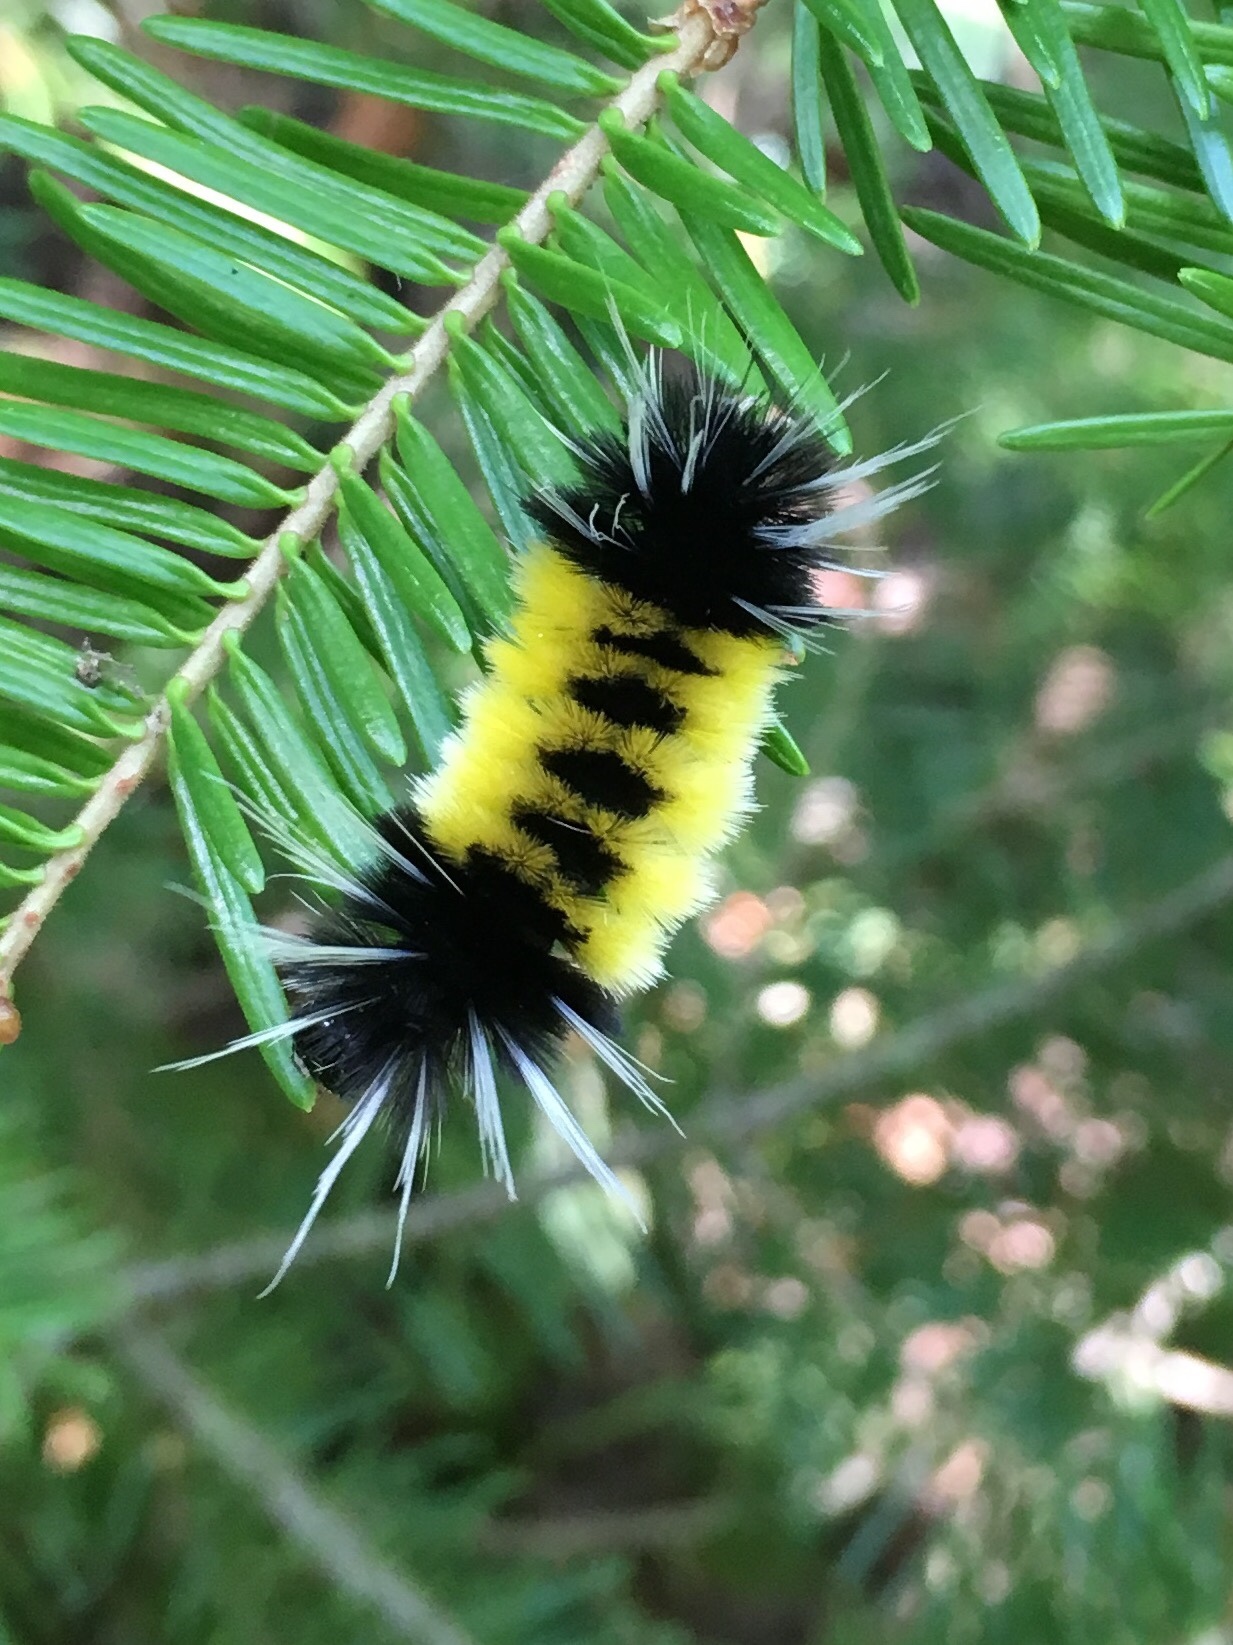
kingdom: Animalia
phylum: Arthropoda
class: Insecta
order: Lepidoptera
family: Erebidae
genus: Lophocampa
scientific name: Lophocampa maculata
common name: Spotted tussock moth
